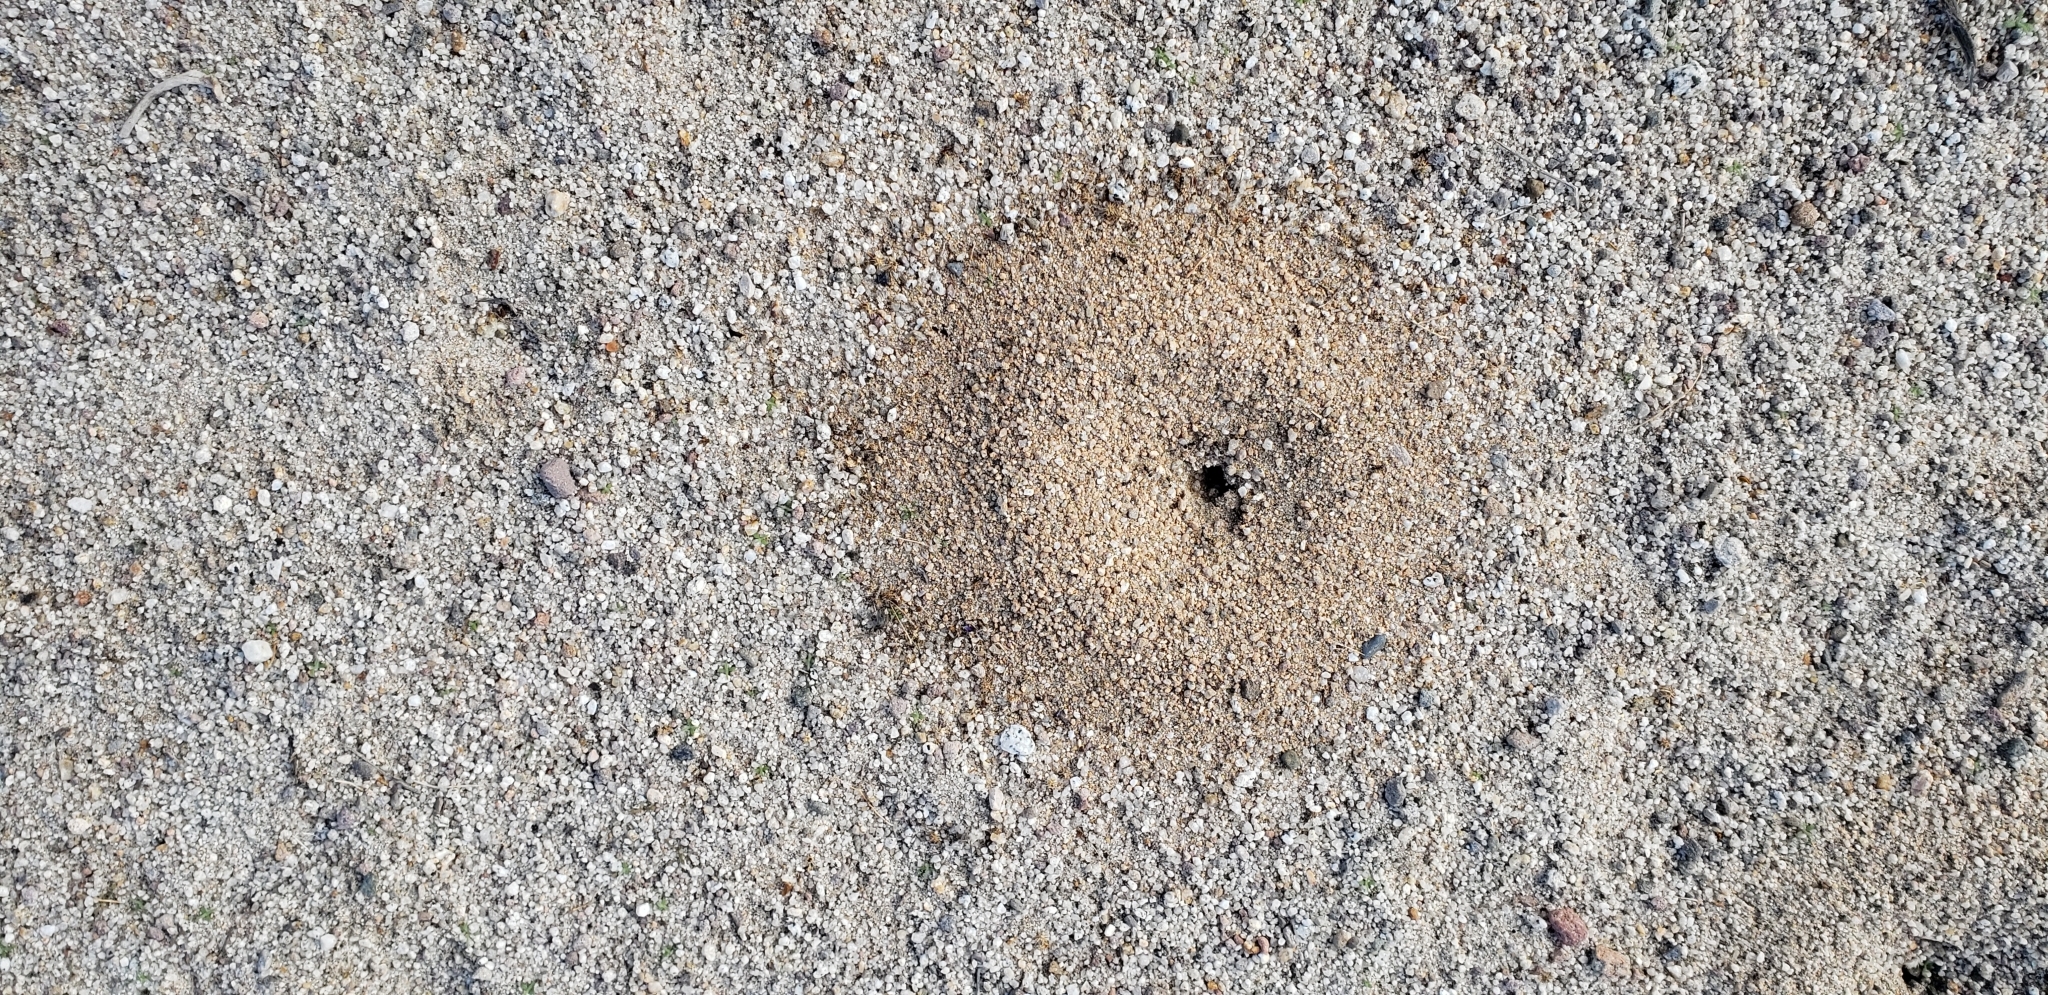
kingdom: Animalia
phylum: Arthropoda
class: Insecta
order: Hymenoptera
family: Formicidae
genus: Messor
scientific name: Messor pergandei
